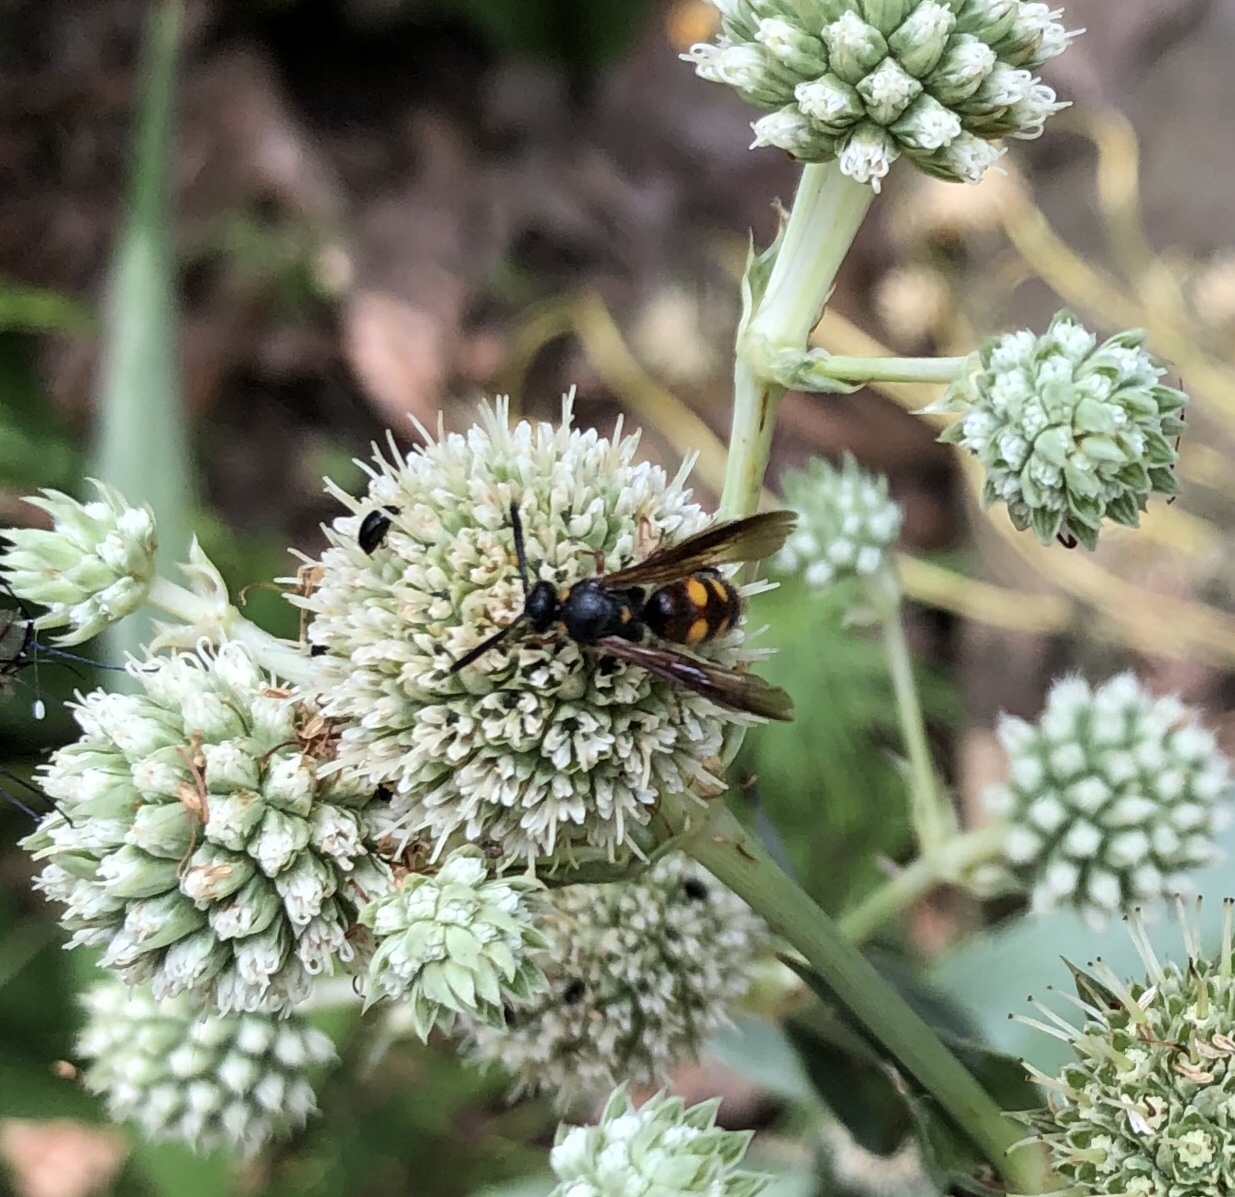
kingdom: Animalia
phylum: Arthropoda
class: Insecta
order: Hymenoptera
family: Scoliidae
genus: Scolia
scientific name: Scolia nobilitata
